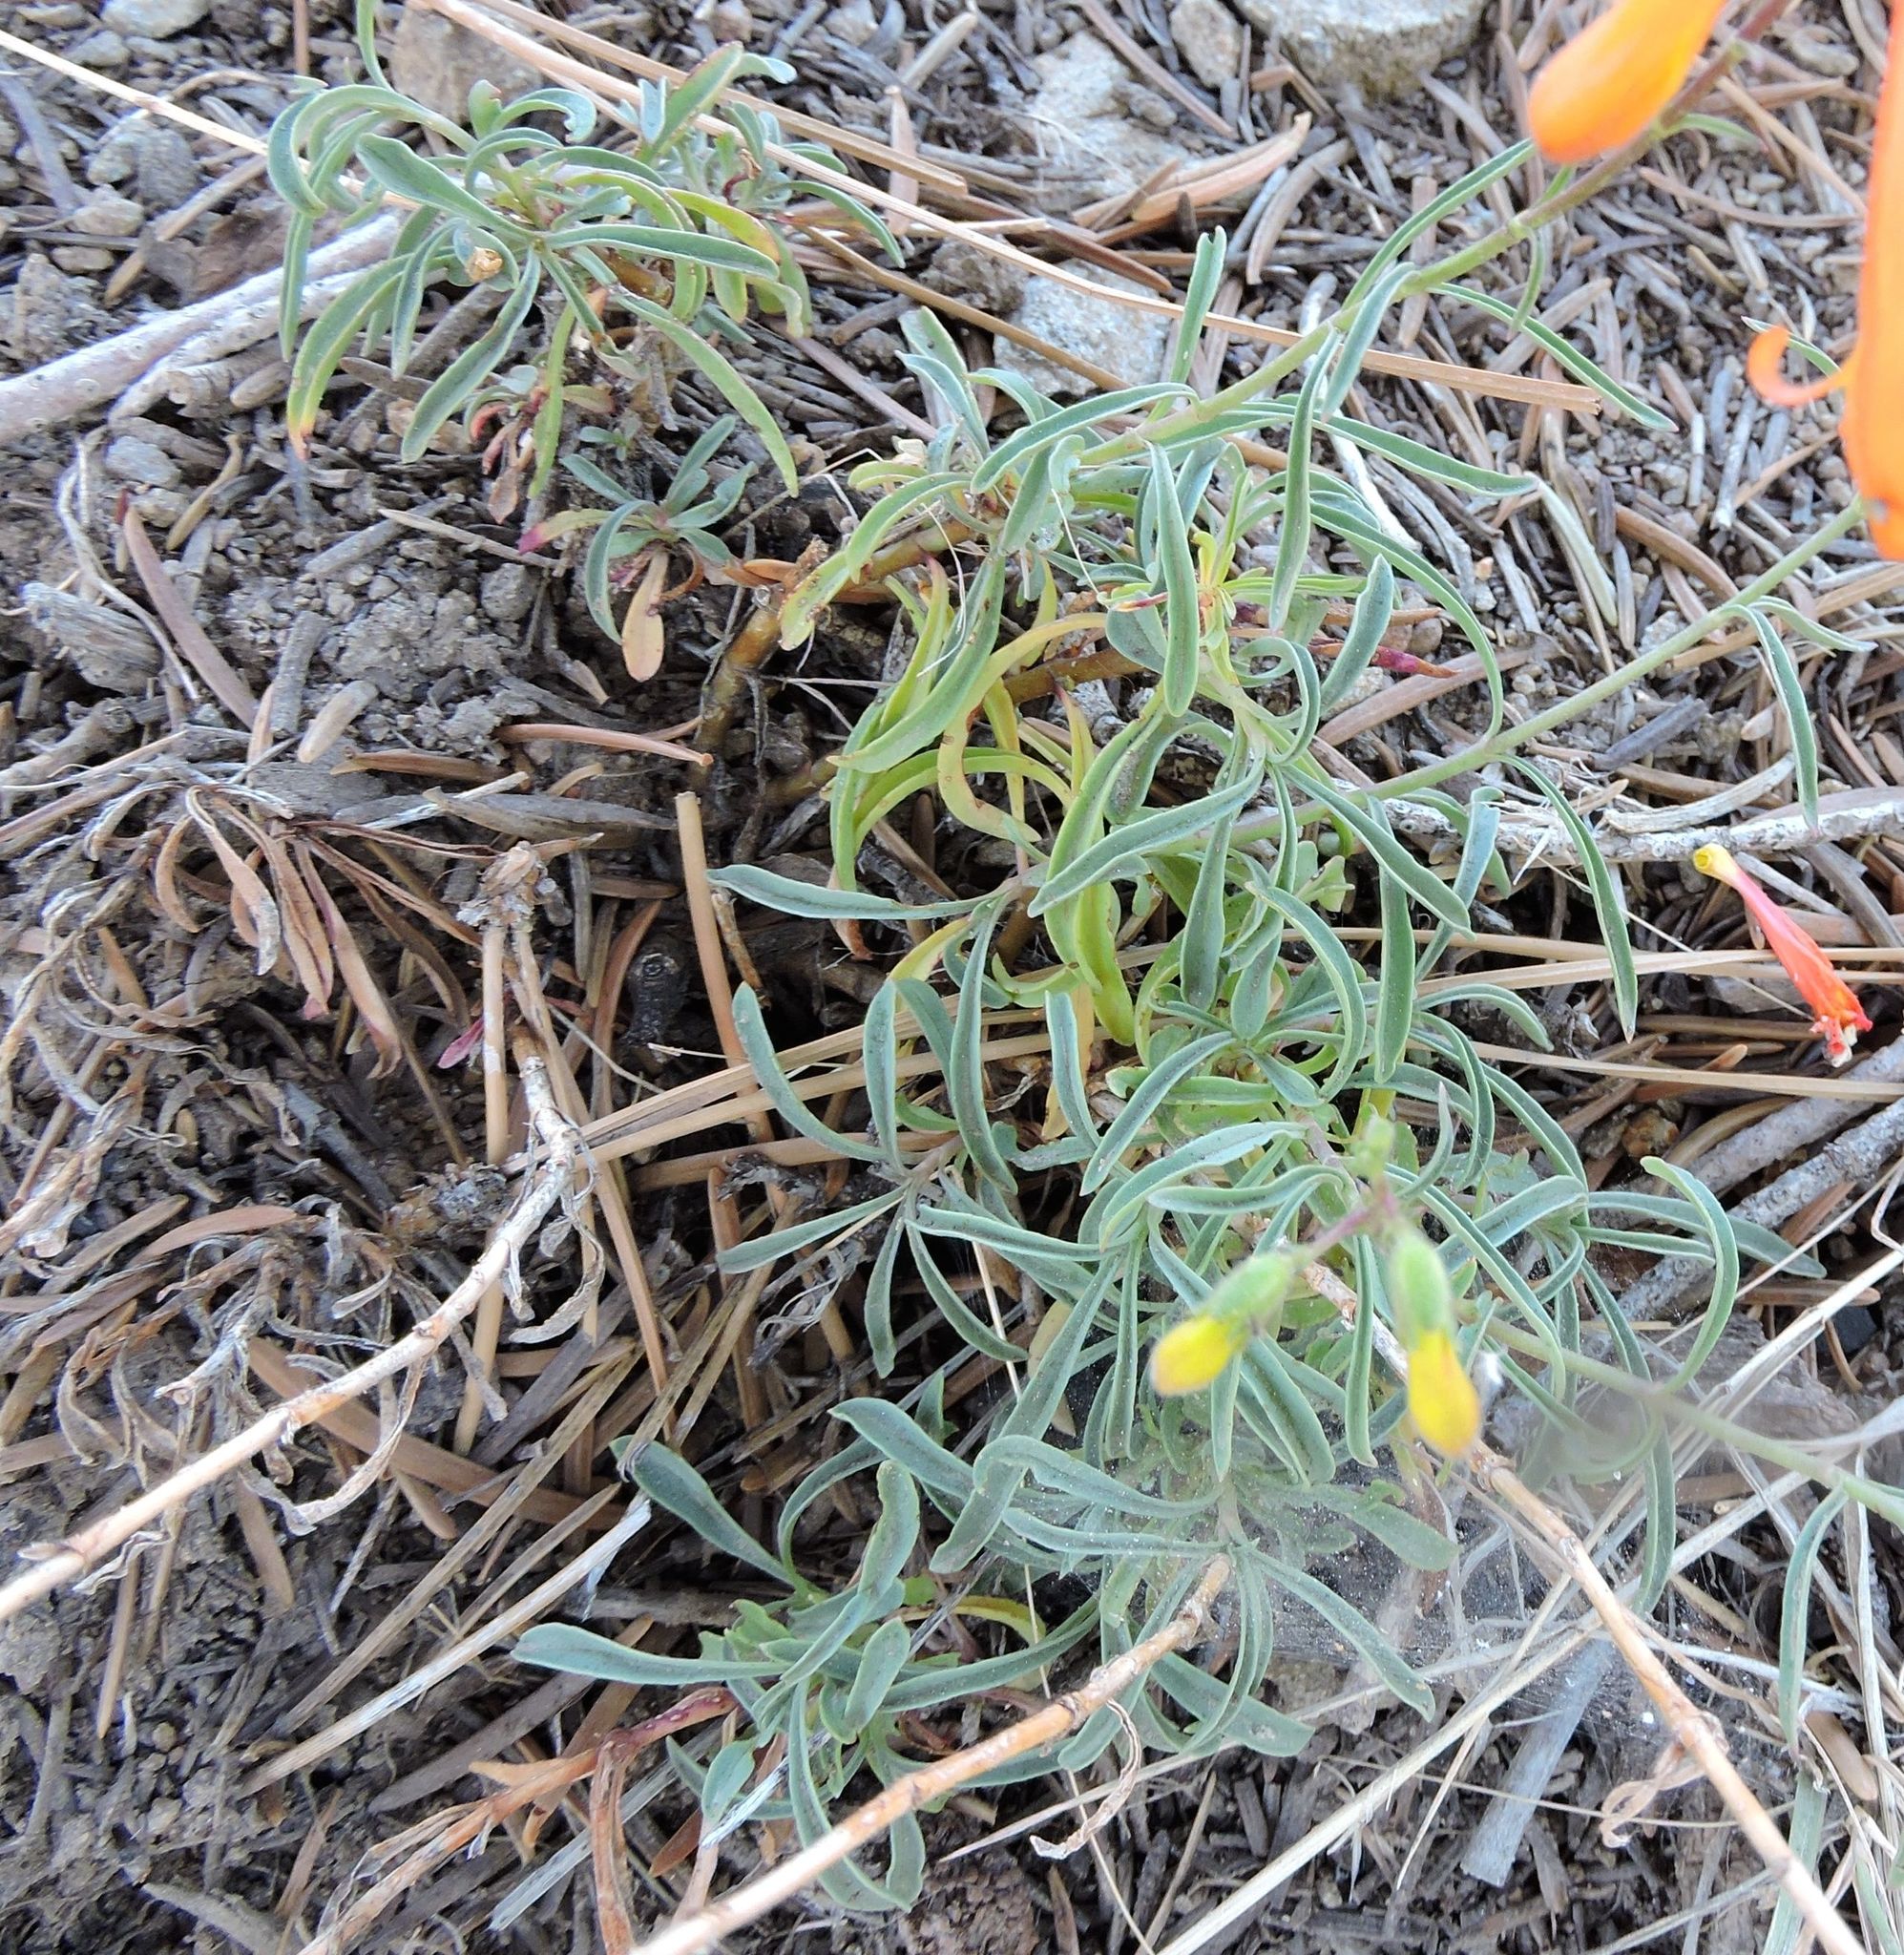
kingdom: Plantae
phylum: Tracheophyta
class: Magnoliopsida
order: Lamiales
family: Plantaginaceae
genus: Penstemon
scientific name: Penstemon rostriflorus
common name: Bridges's penstemon
